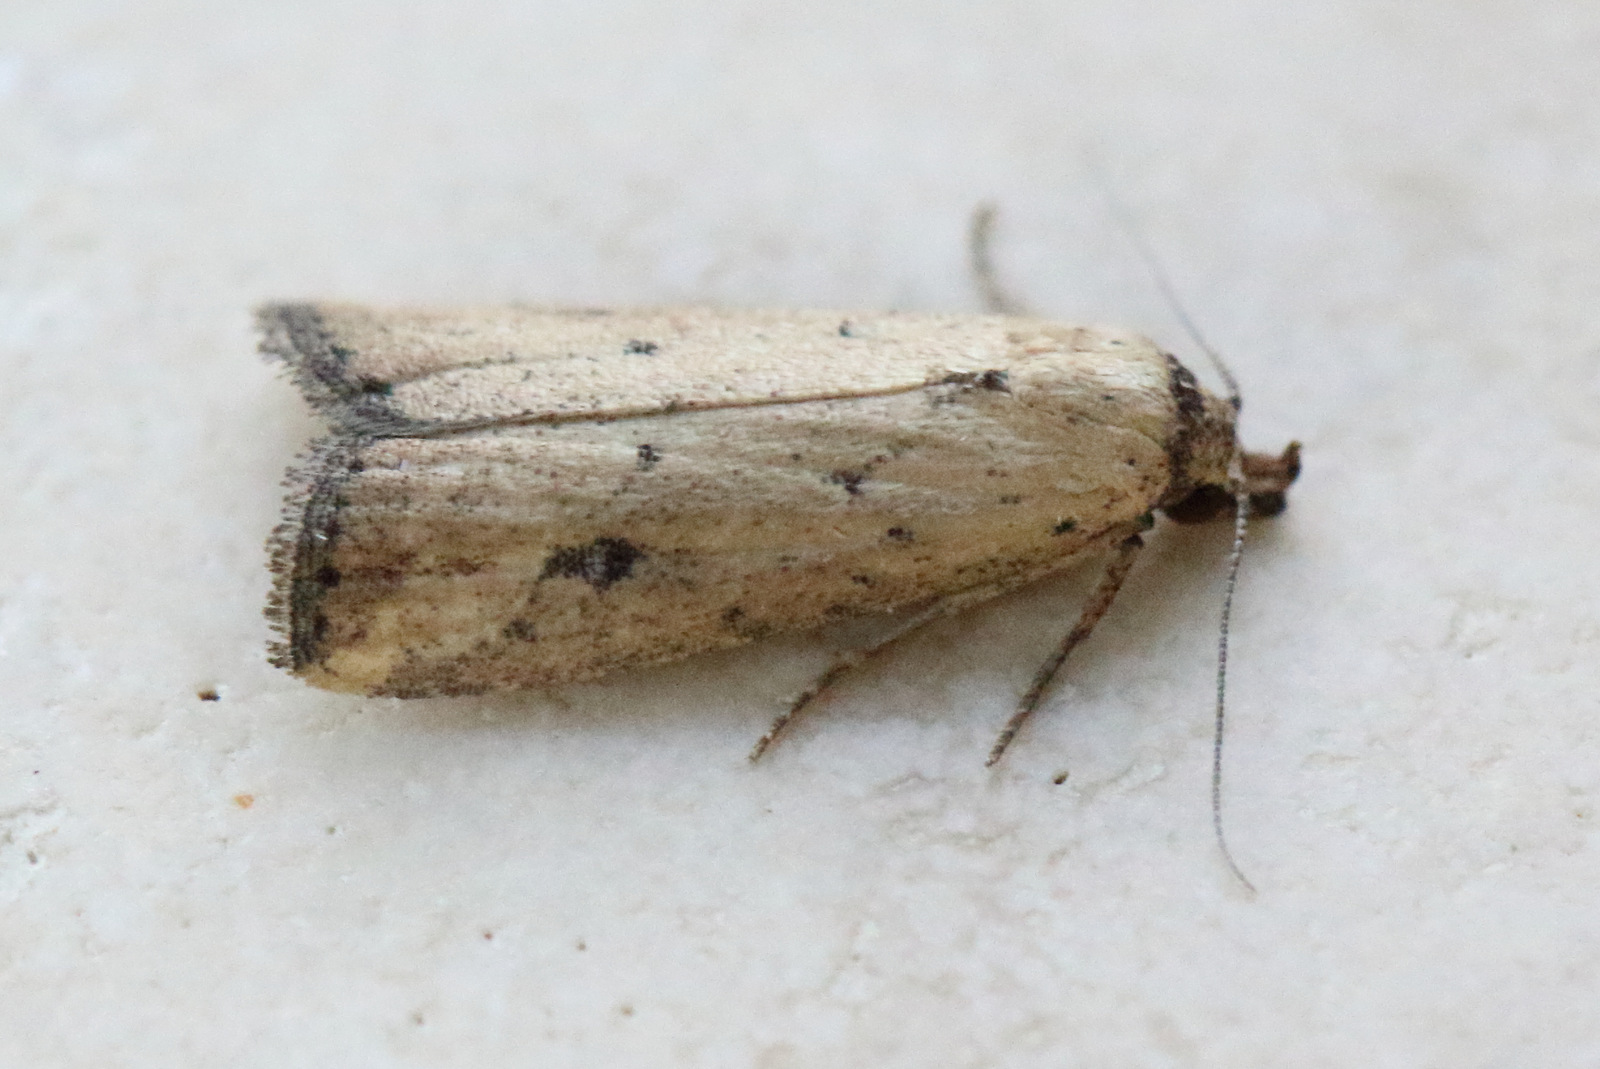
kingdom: Animalia
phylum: Arthropoda
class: Insecta
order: Lepidoptera
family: Erebidae
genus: Luceria
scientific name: Luceria oculalis
